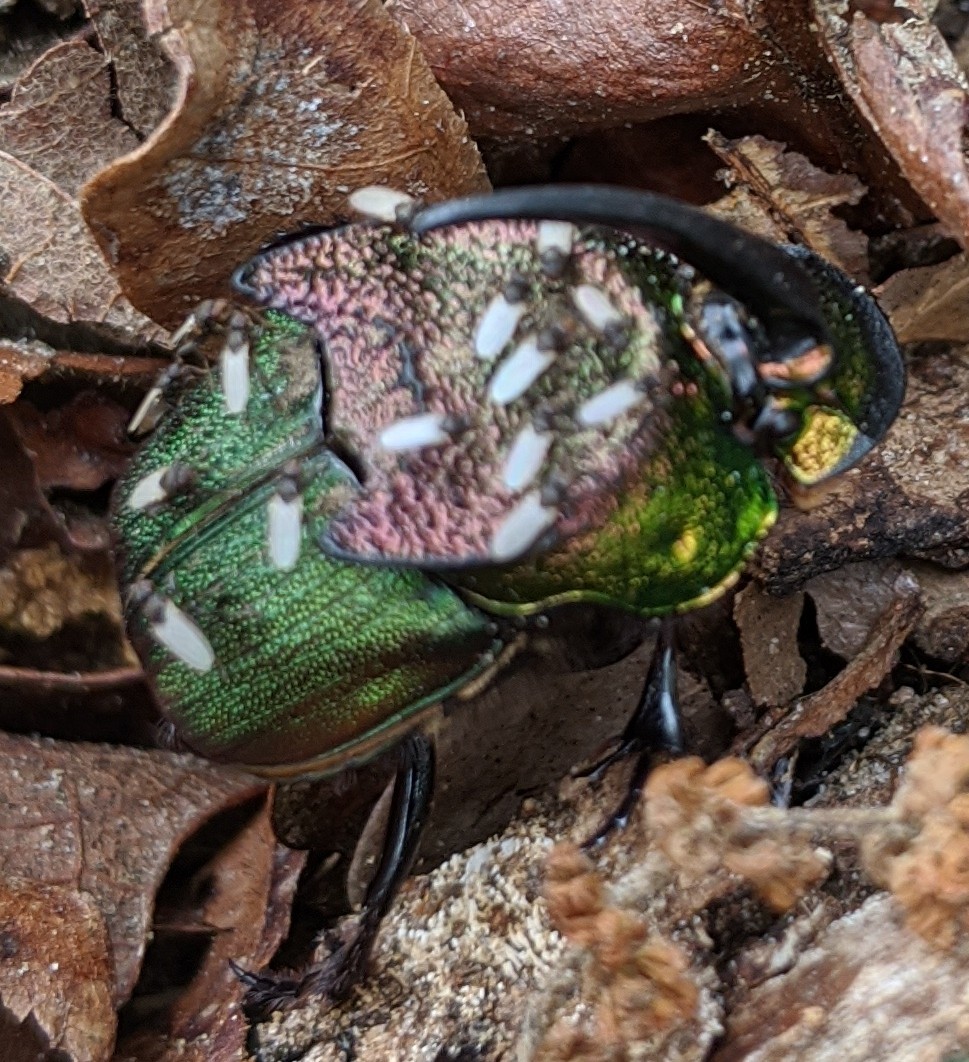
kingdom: Animalia
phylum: Arthropoda
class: Insecta
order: Coleoptera
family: Scarabaeidae
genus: Phanaeus
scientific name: Phanaeus difformis
